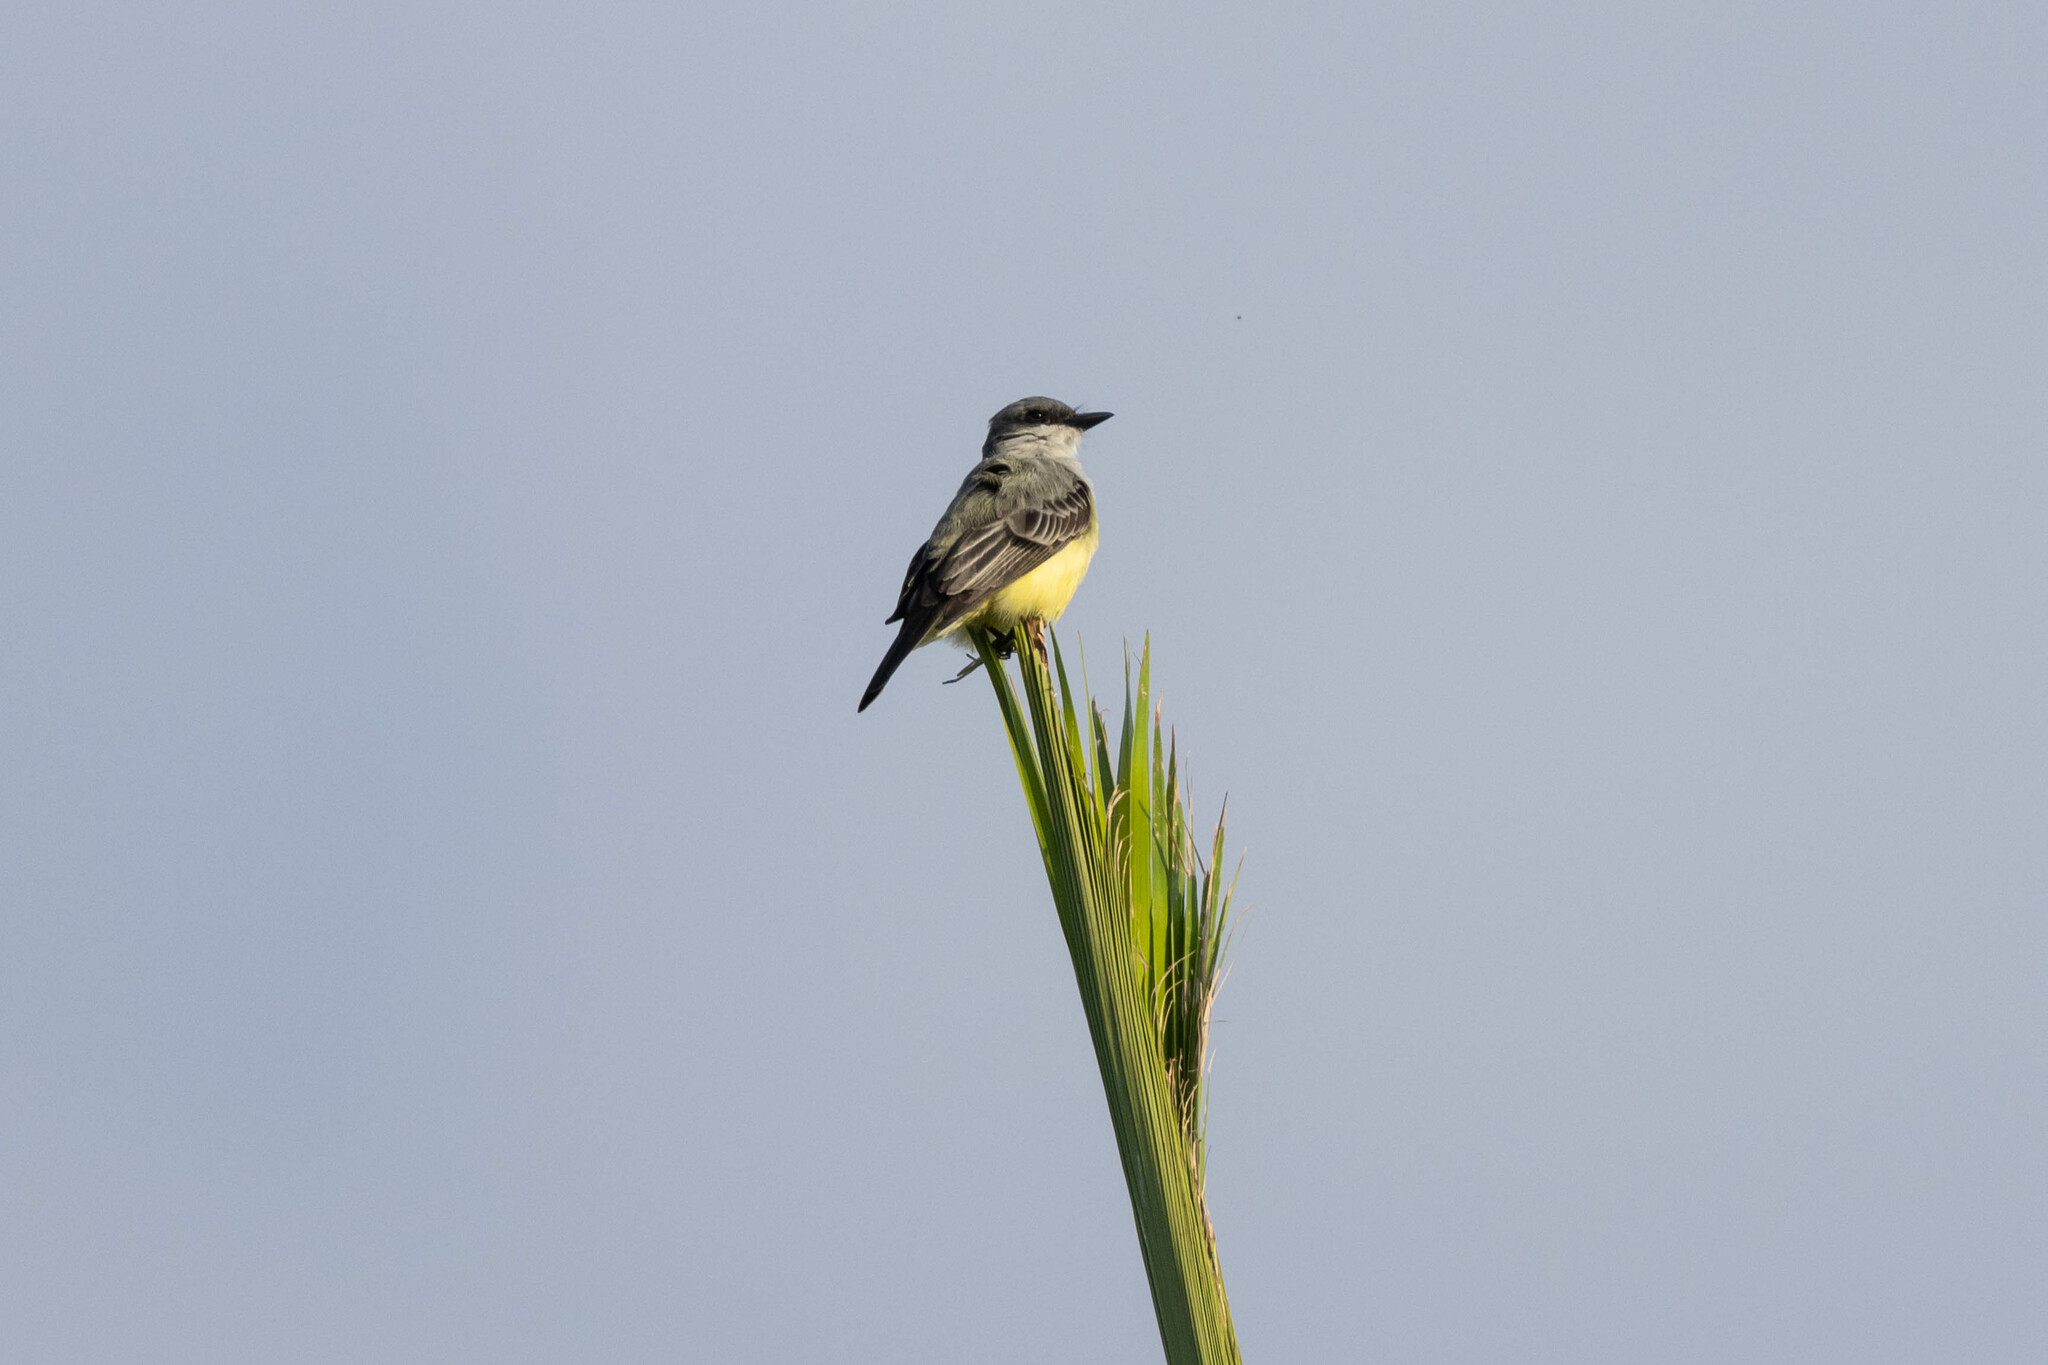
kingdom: Animalia
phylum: Chordata
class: Aves
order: Passeriformes
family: Tyrannidae
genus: Tyrannus
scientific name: Tyrannus niveigularis
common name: Snowy-throated kingbird
